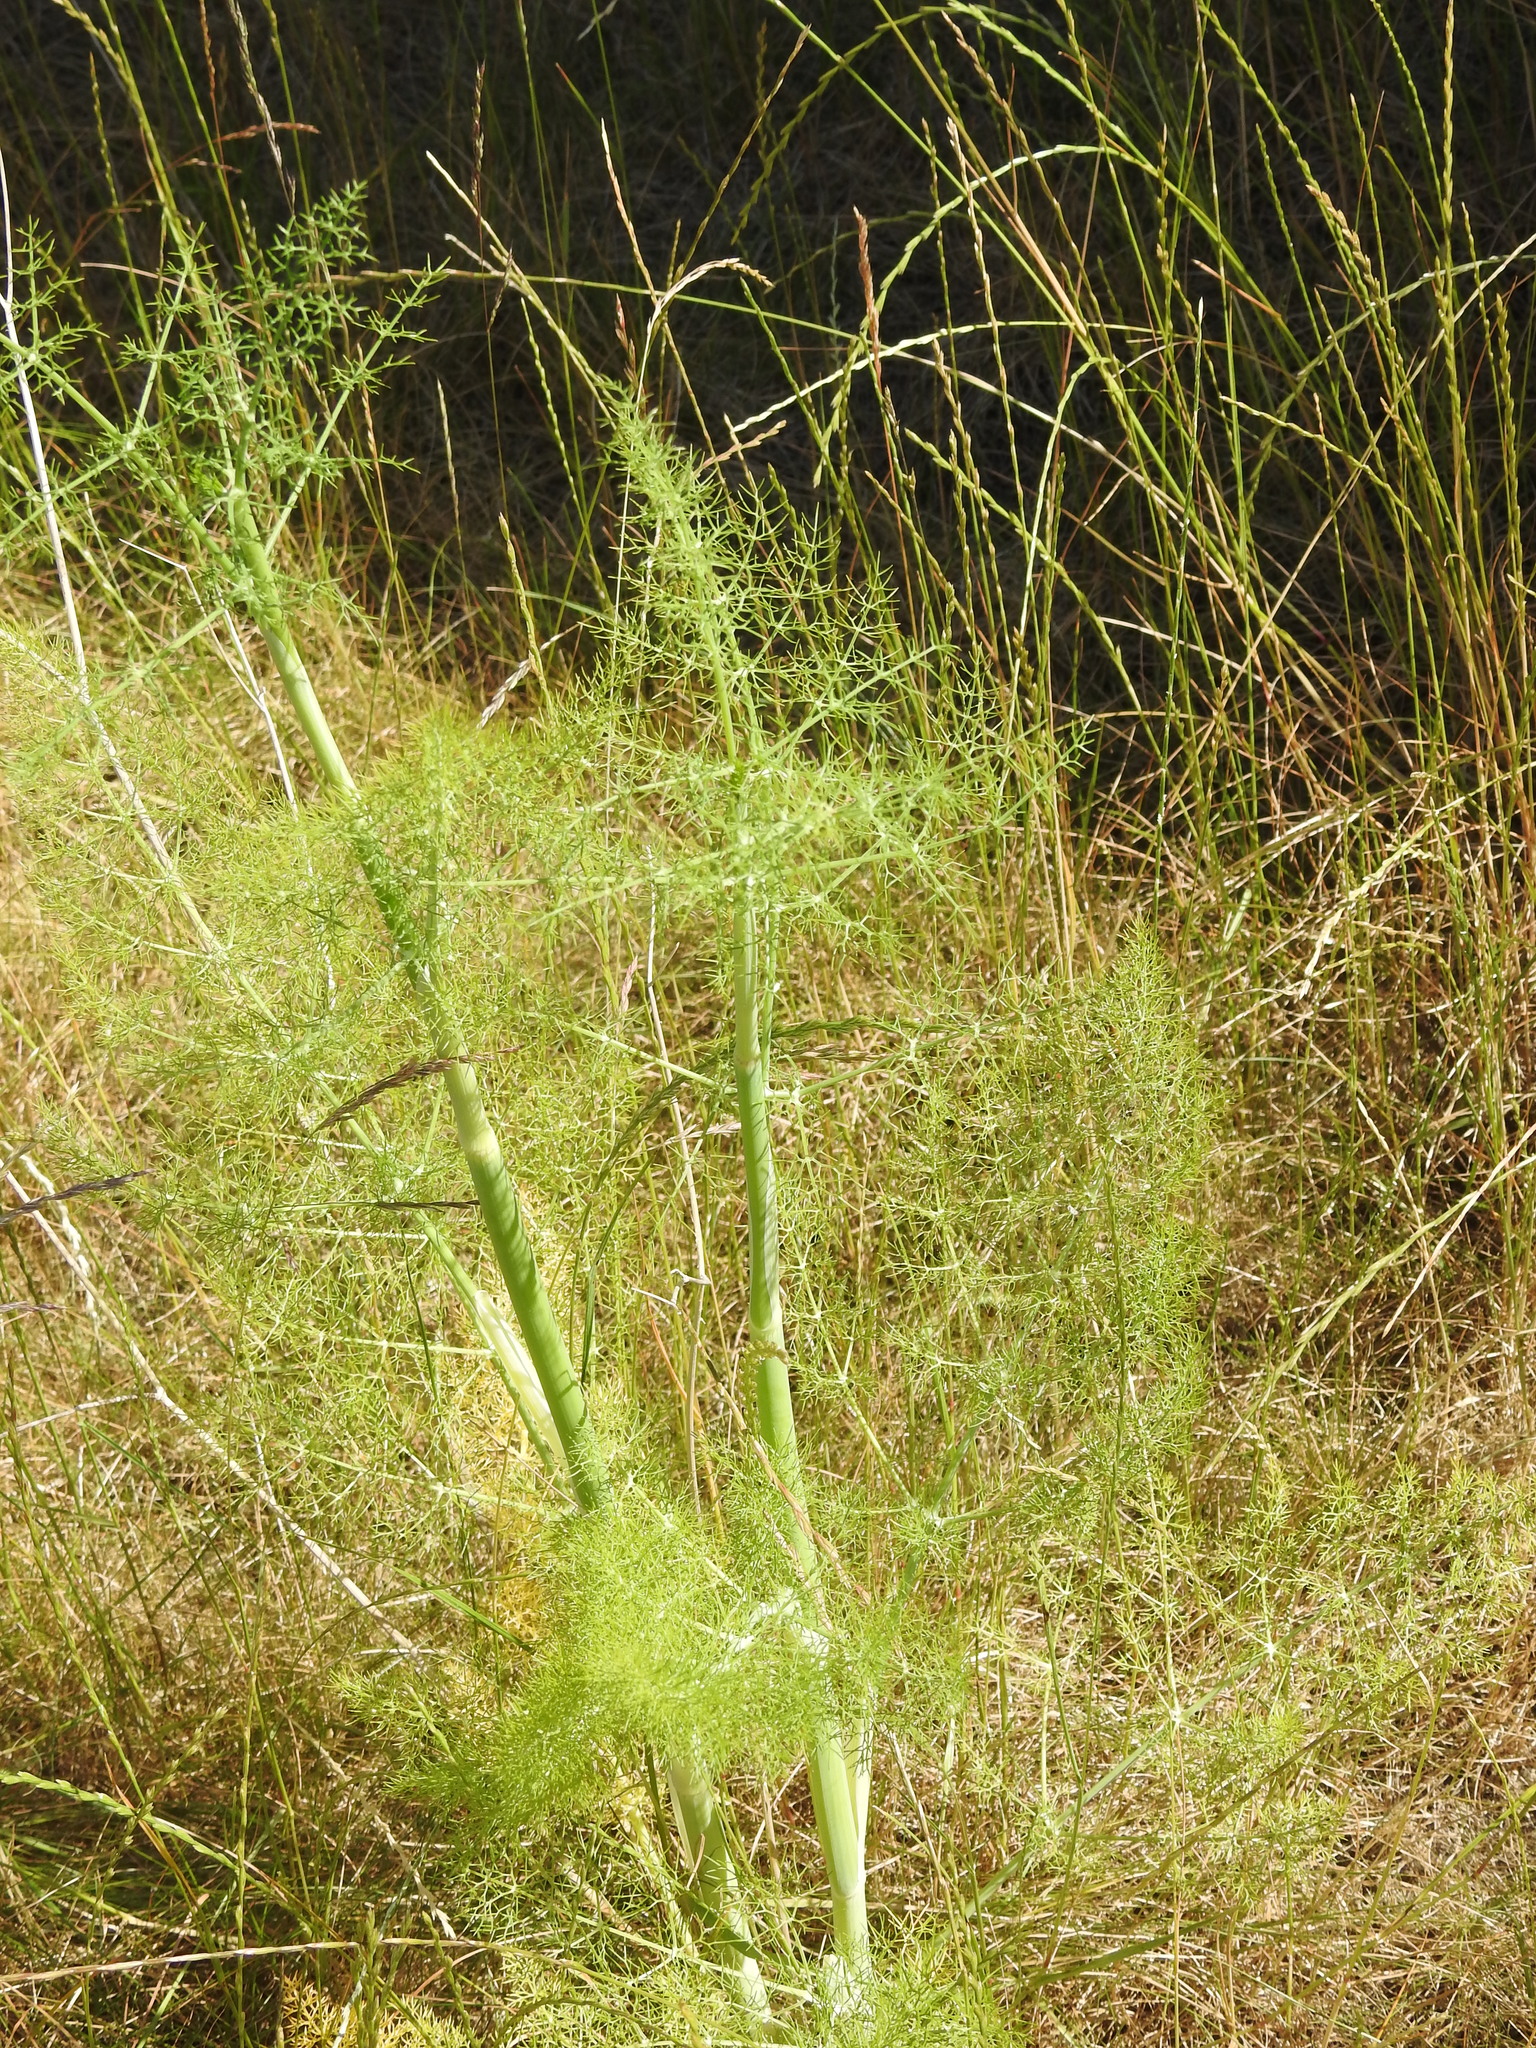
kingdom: Plantae
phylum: Tracheophyta
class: Magnoliopsida
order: Apiales
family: Apiaceae
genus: Foeniculum
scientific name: Foeniculum vulgare
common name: Fennel
